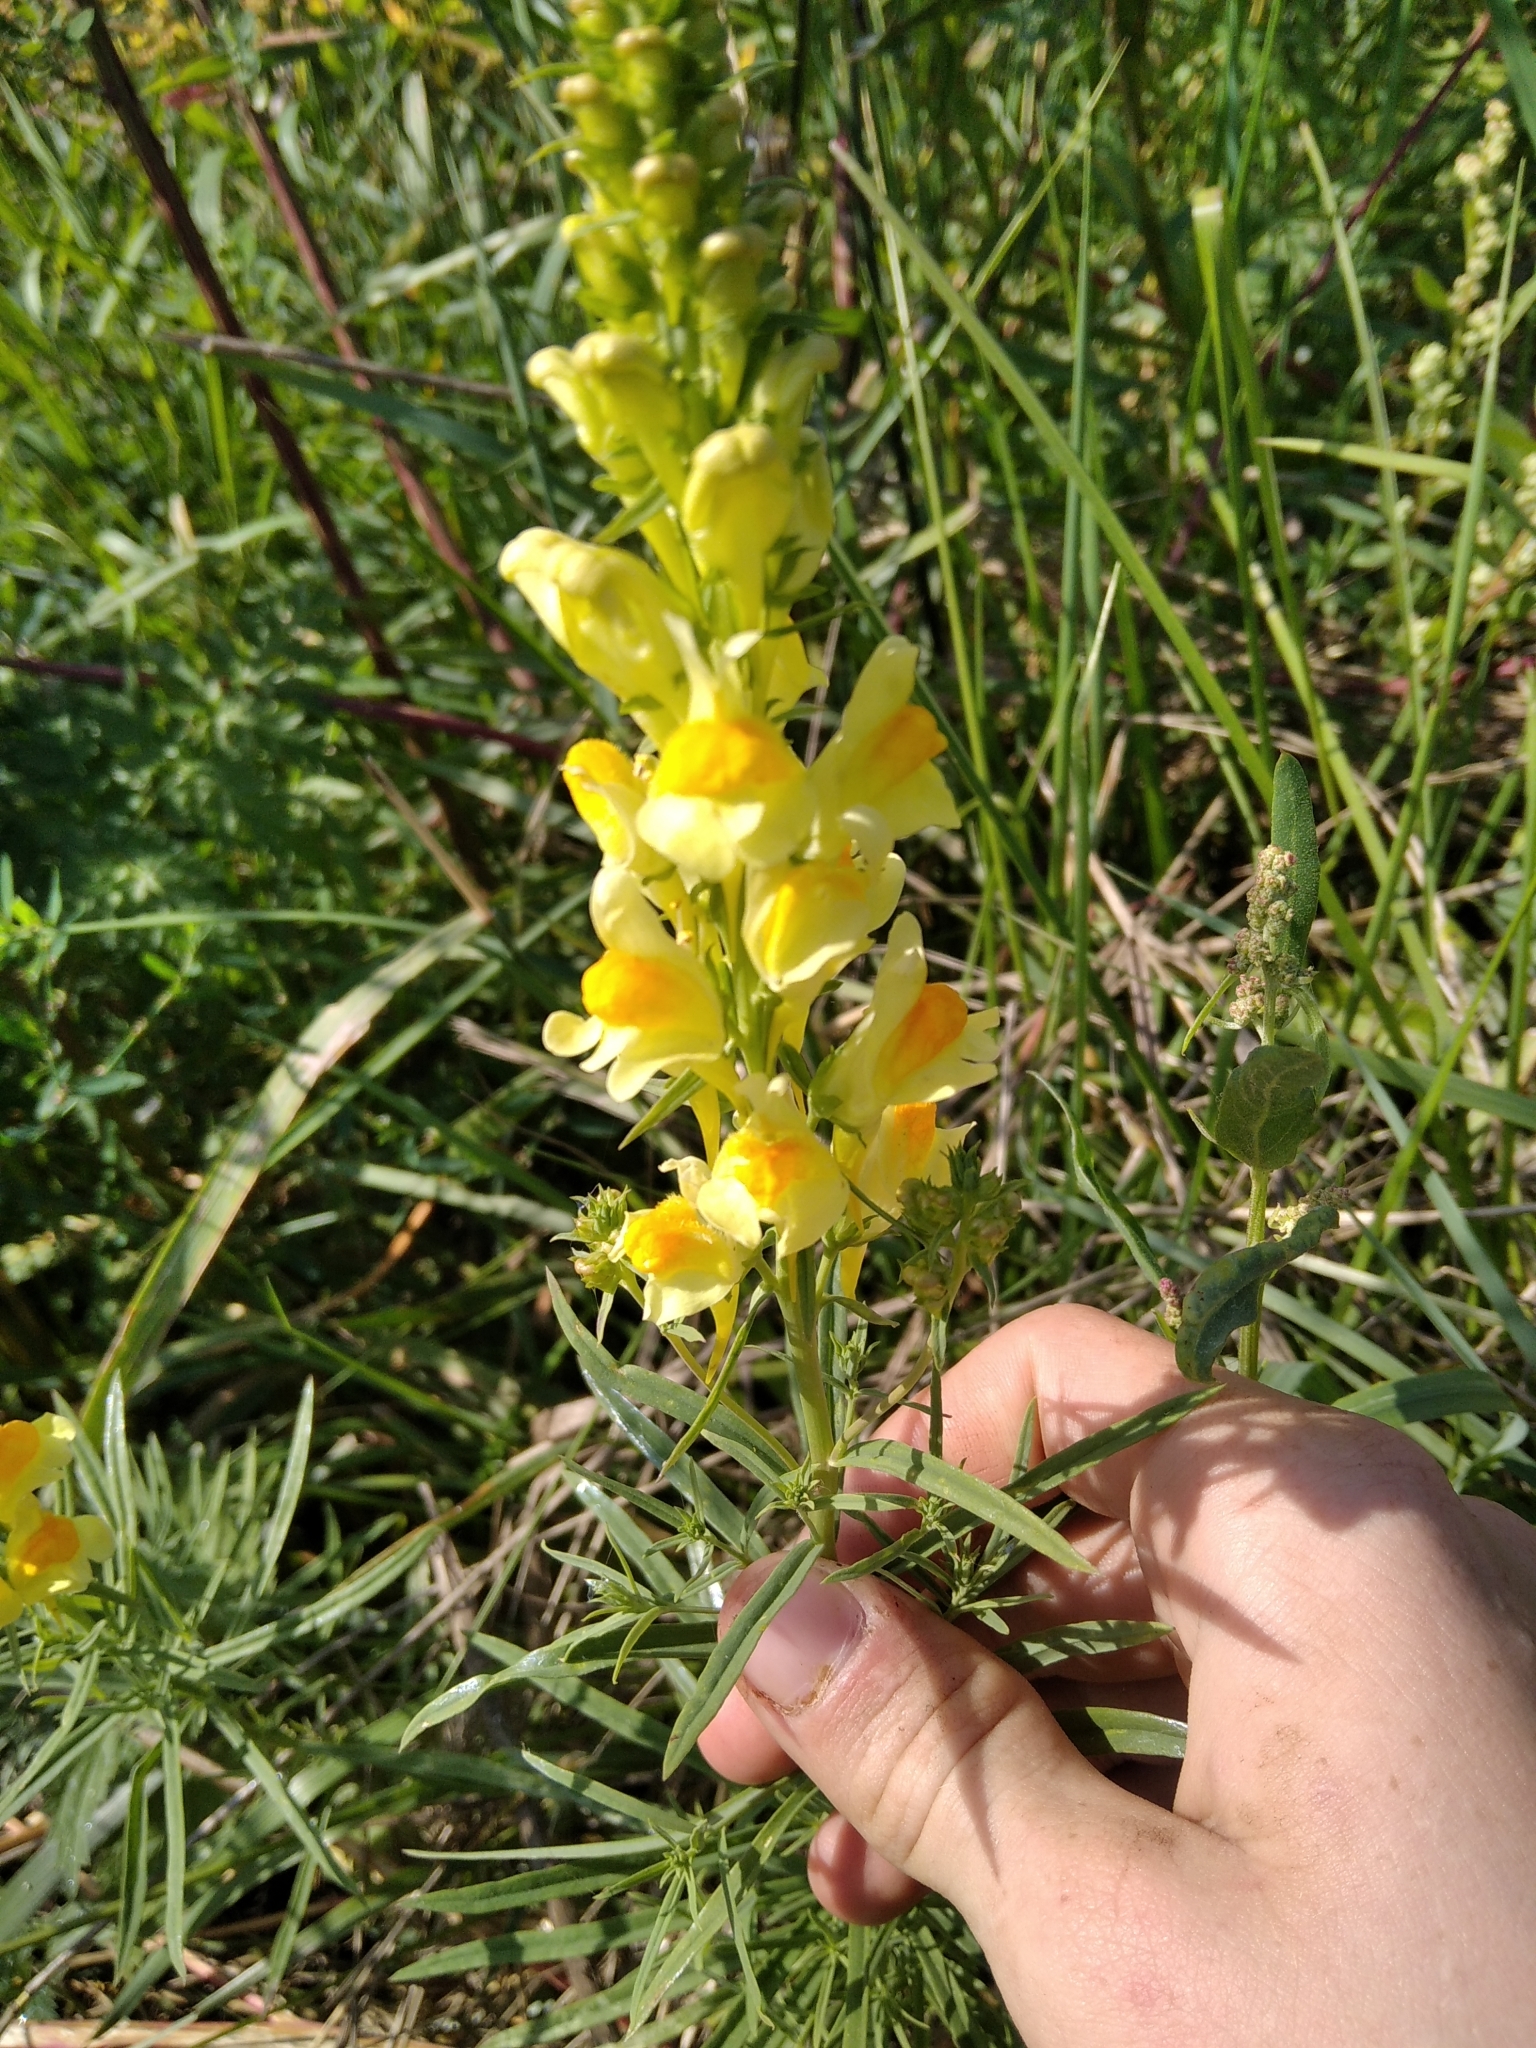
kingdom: Plantae
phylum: Tracheophyta
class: Magnoliopsida
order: Lamiales
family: Plantaginaceae
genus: Linaria
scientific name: Linaria vulgaris
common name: Butter and eggs
